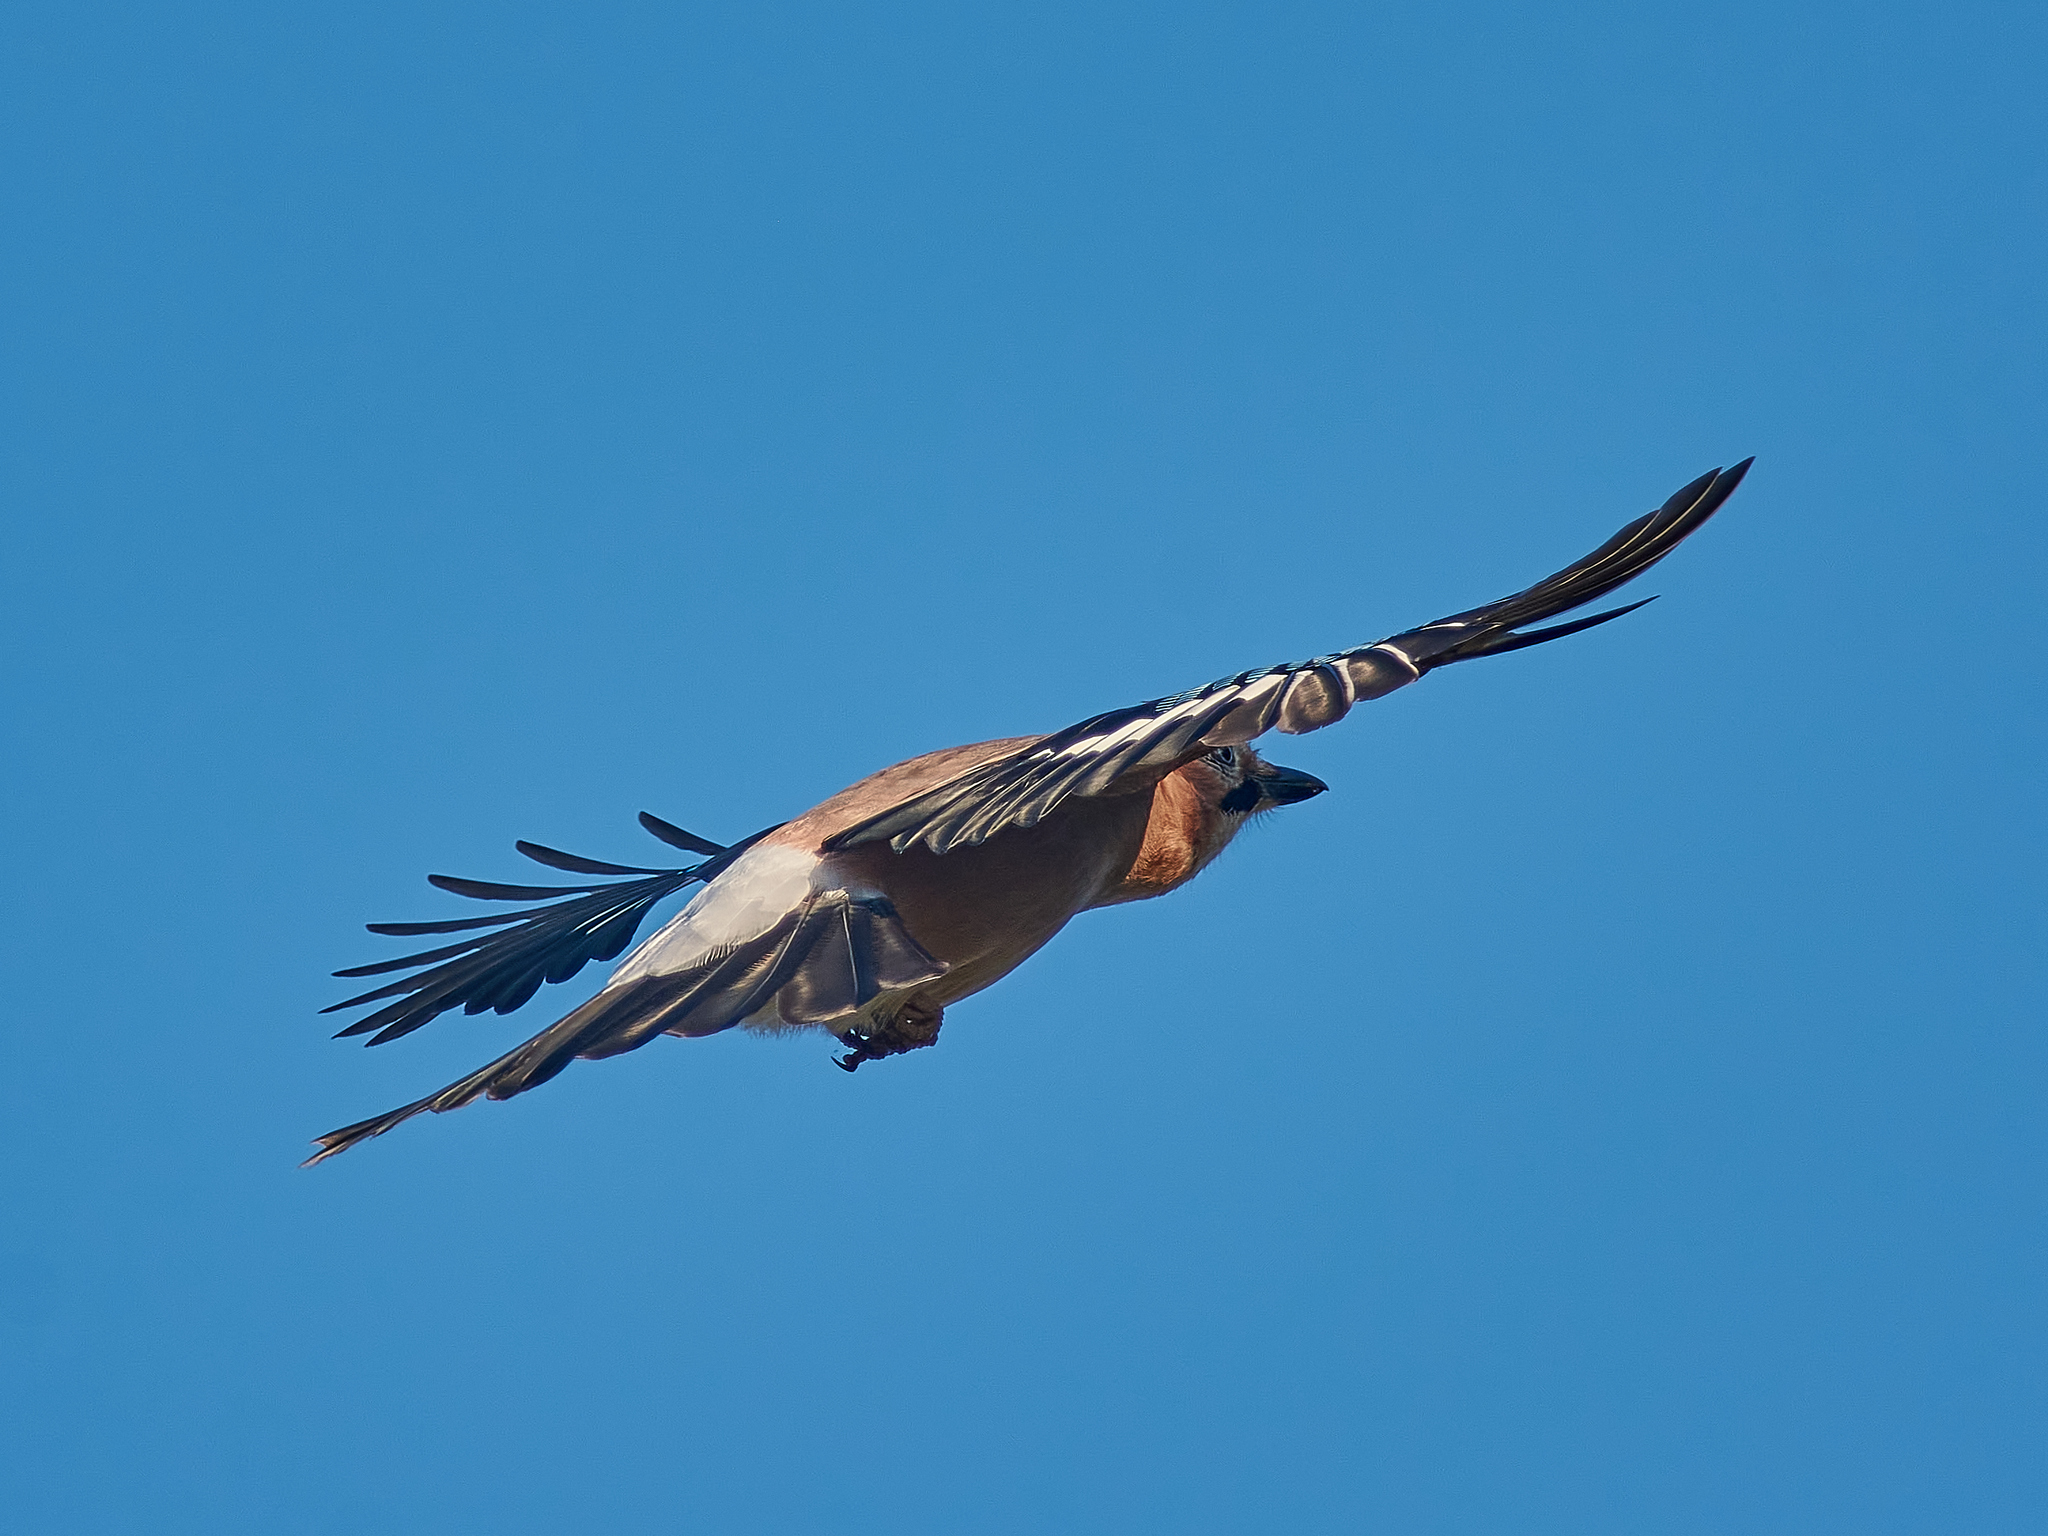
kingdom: Animalia
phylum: Chordata
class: Aves
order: Passeriformes
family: Corvidae
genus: Garrulus
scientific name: Garrulus glandarius
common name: Eurasian jay
